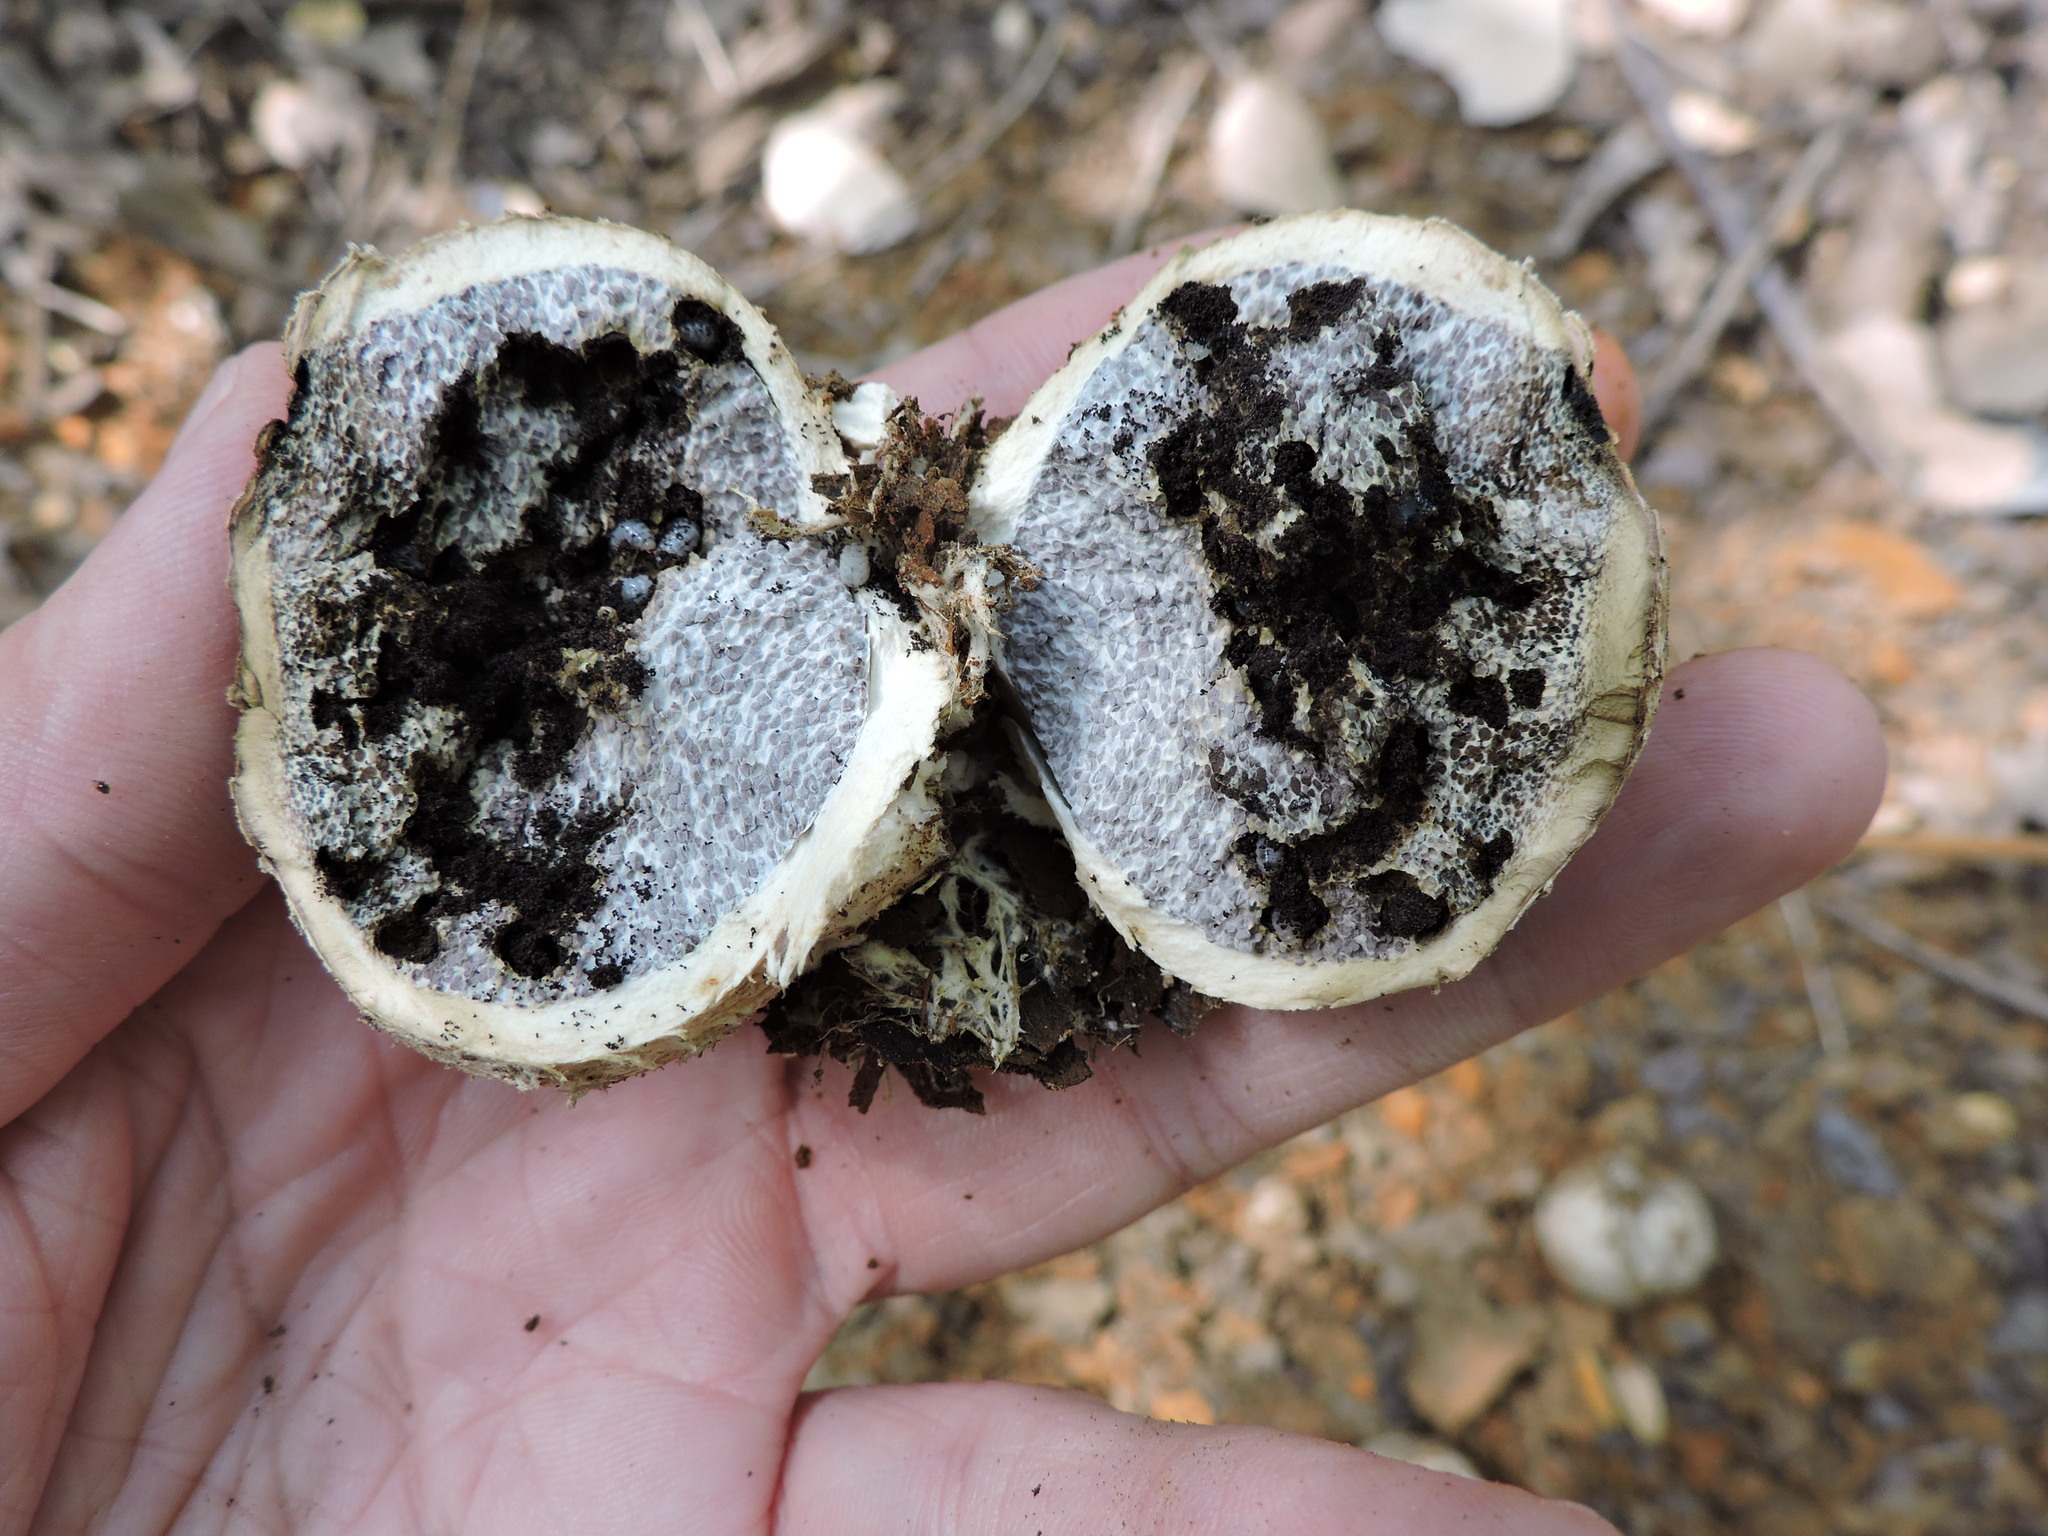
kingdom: Fungi
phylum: Basidiomycota
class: Agaricomycetes
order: Boletales
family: Sclerodermataceae
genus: Scleroderma
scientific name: Scleroderma citrinum
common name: Common earthball
